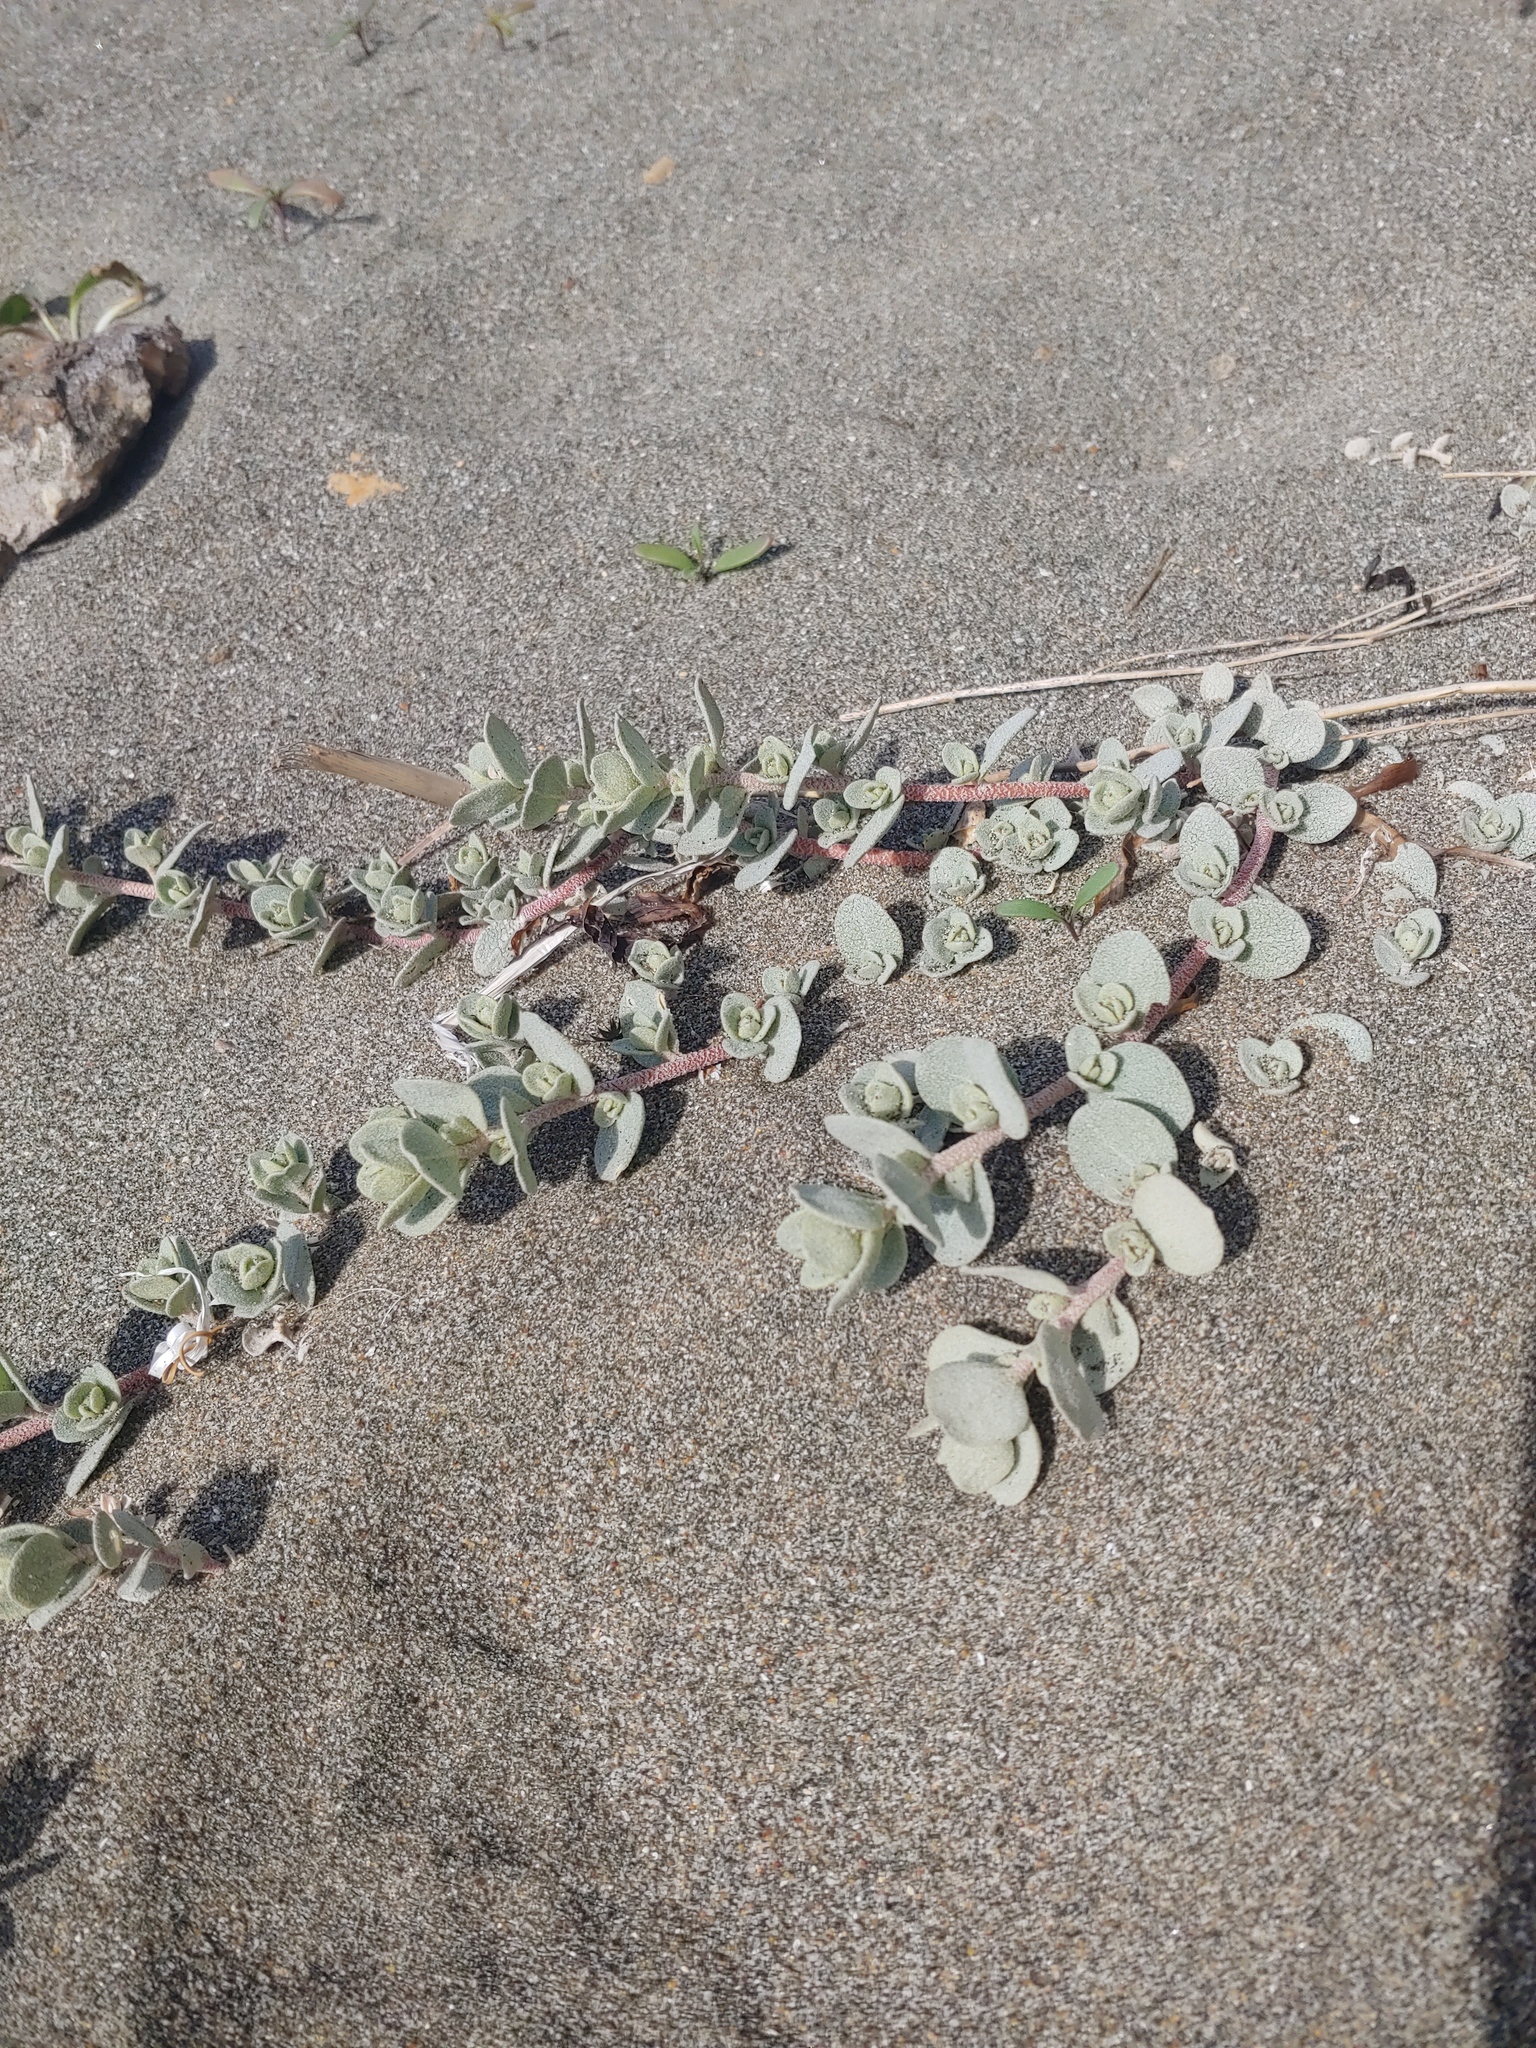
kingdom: Plantae
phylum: Tracheophyta
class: Magnoliopsida
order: Caryophyllales
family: Amaranthaceae
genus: Atriplex
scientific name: Atriplex leucophylla
